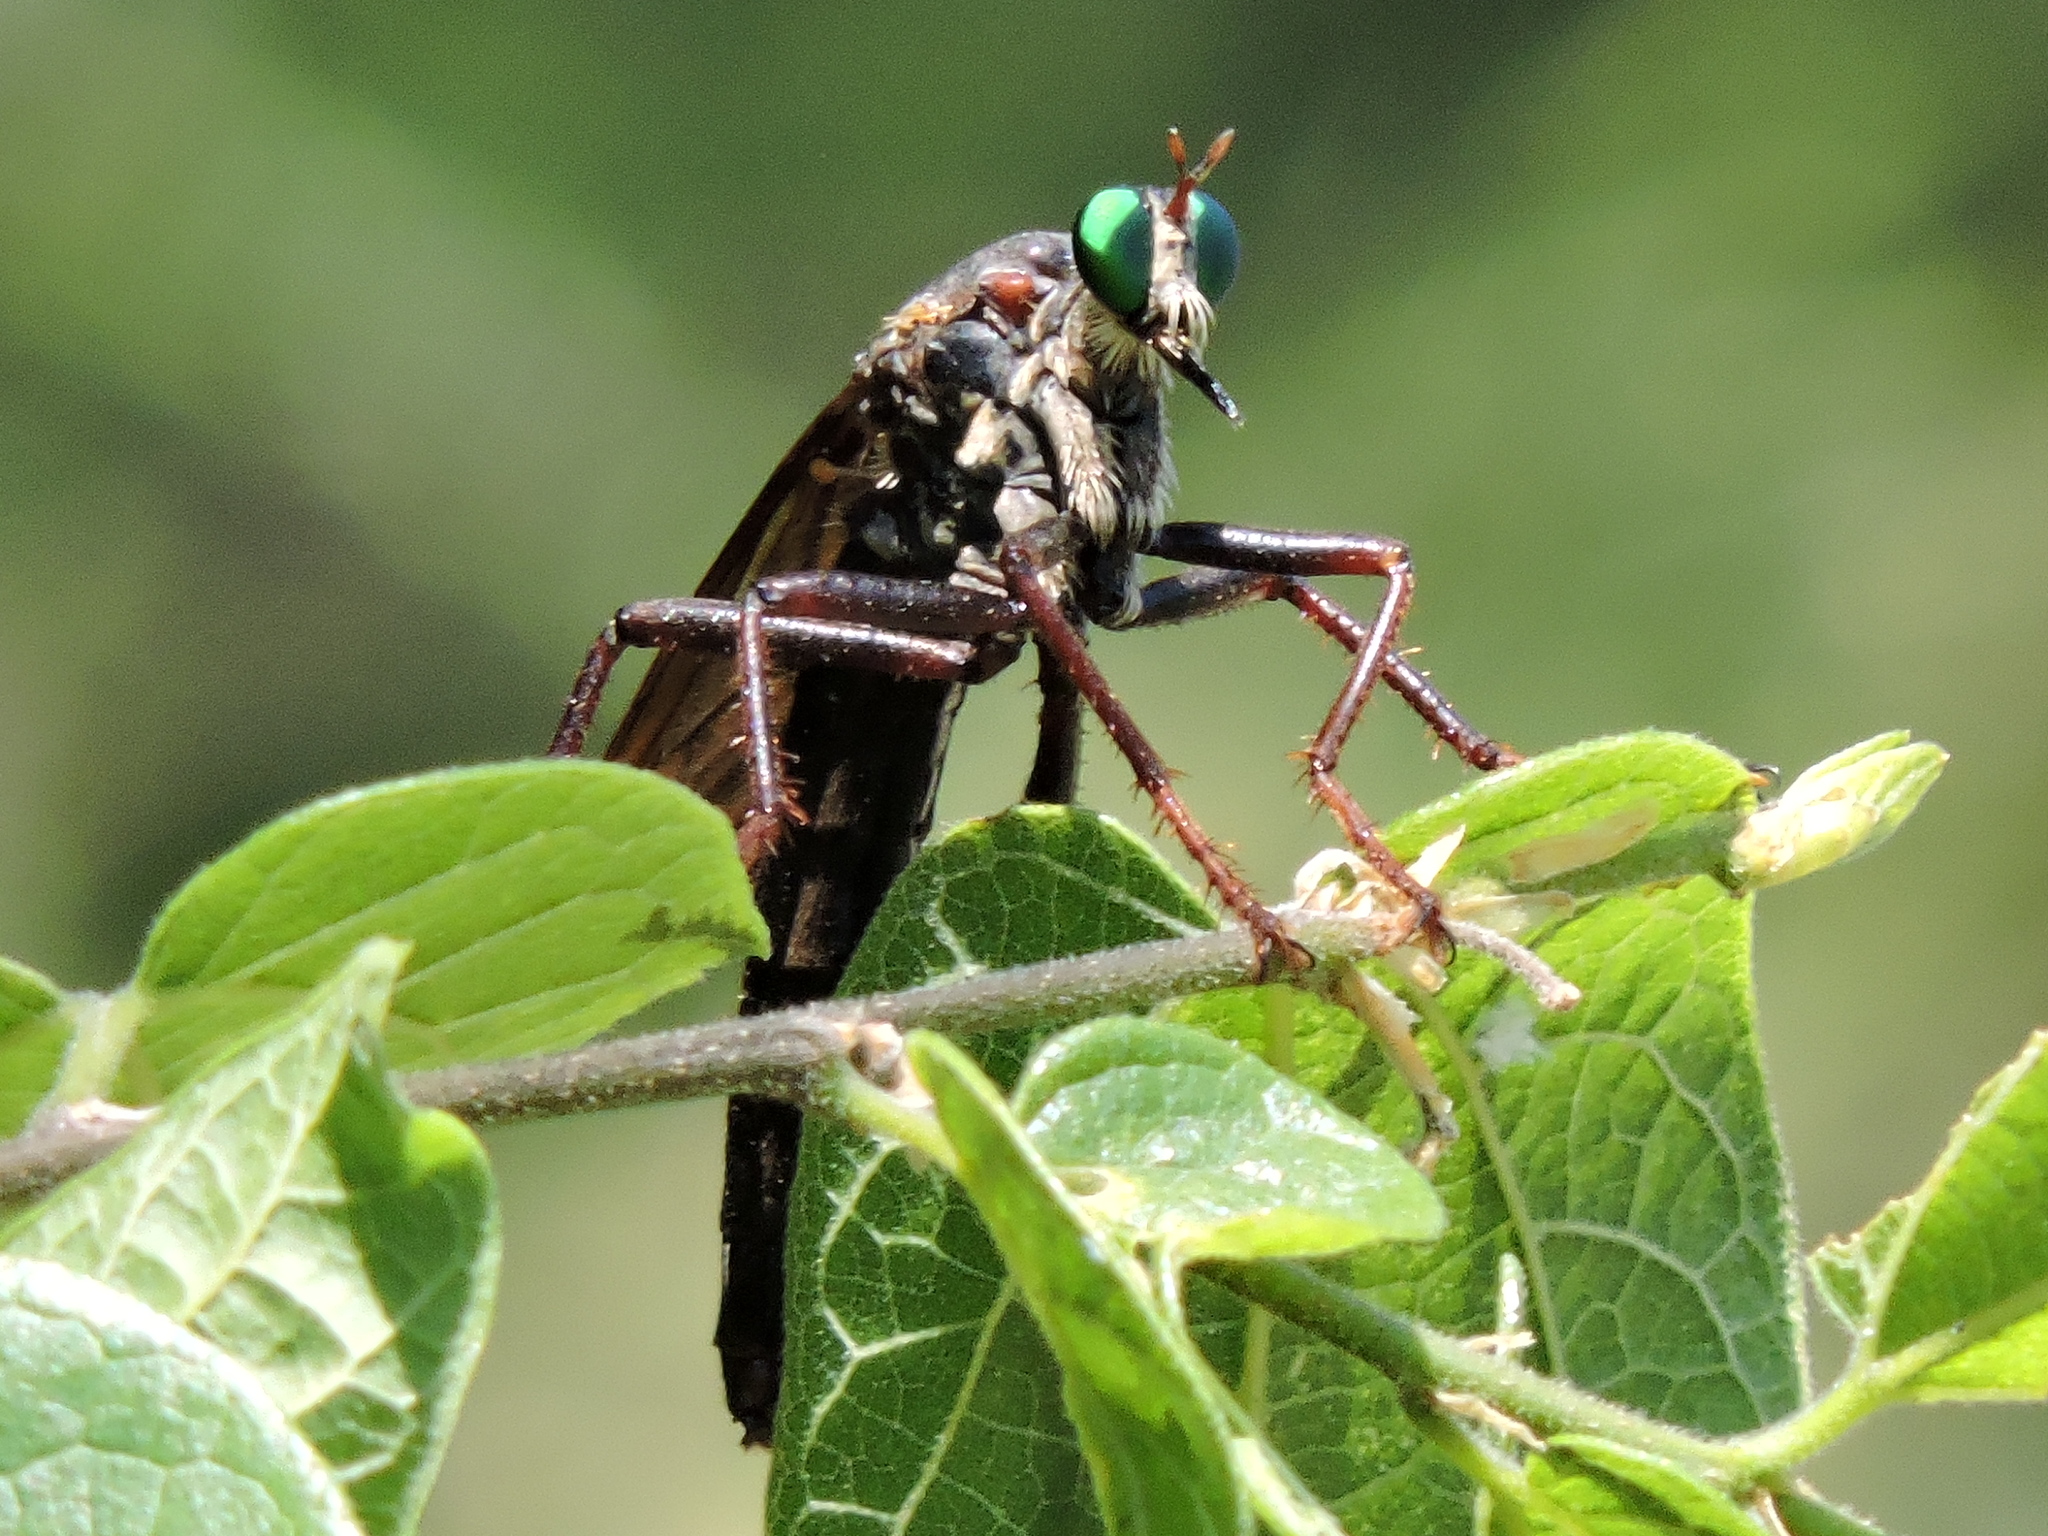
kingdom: Animalia
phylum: Arthropoda
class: Insecta
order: Diptera
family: Asilidae
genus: Microstylum
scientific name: Microstylum morosum
